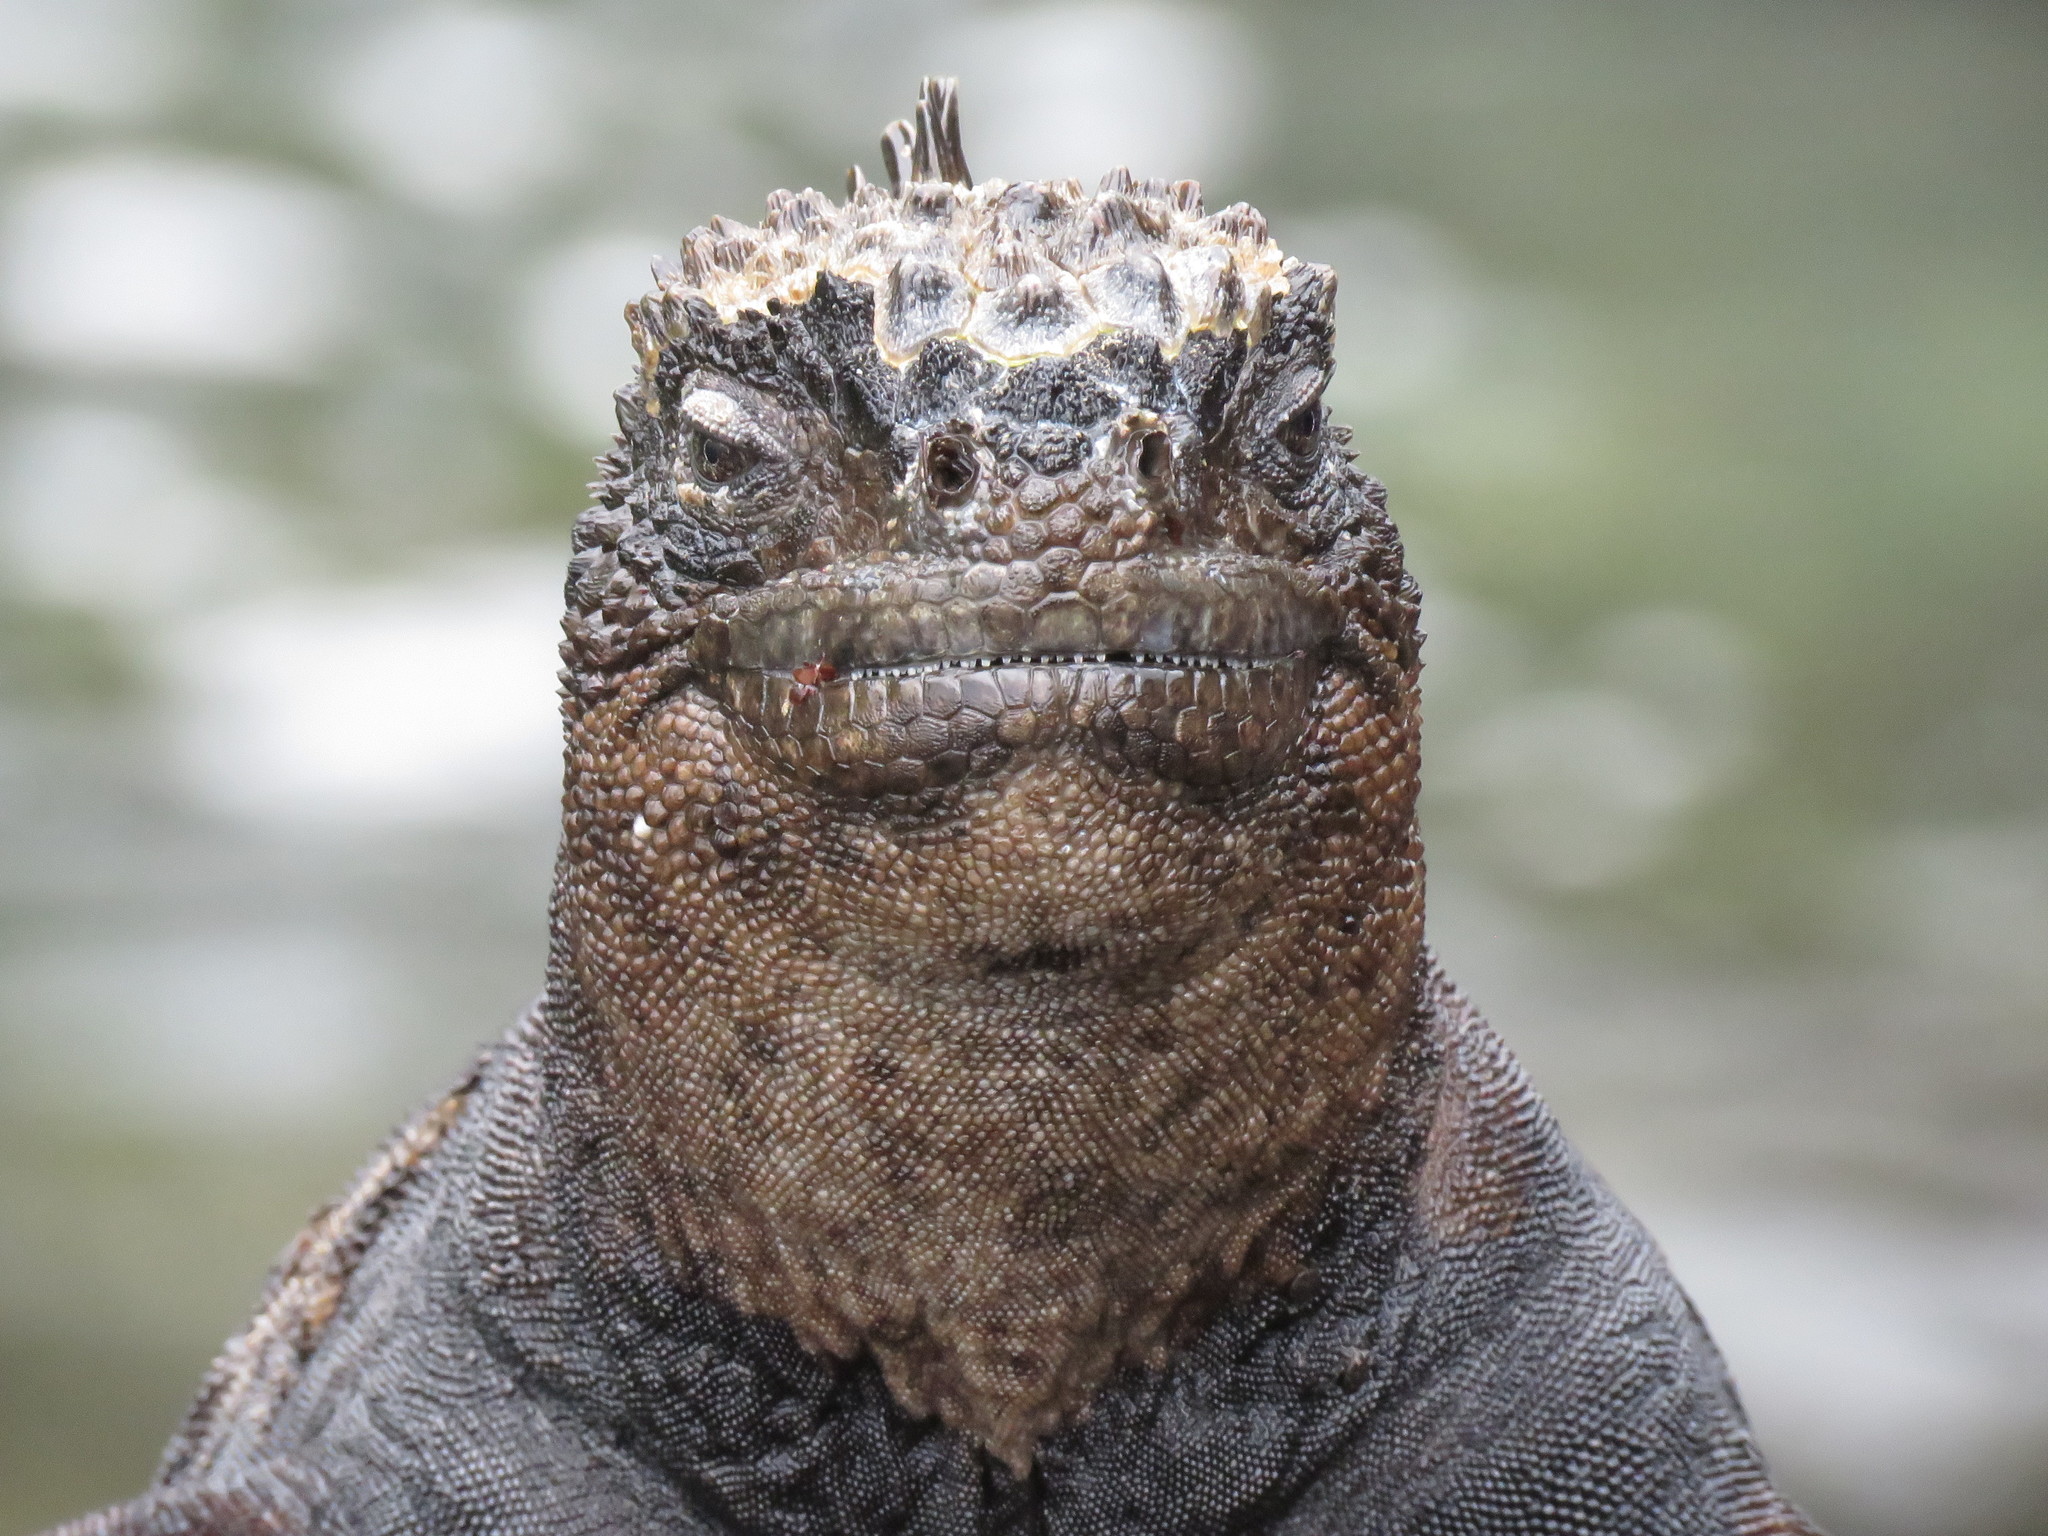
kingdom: Animalia
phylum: Chordata
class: Squamata
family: Iguanidae
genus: Amblyrhynchus
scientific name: Amblyrhynchus cristatus
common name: Marine iguana
